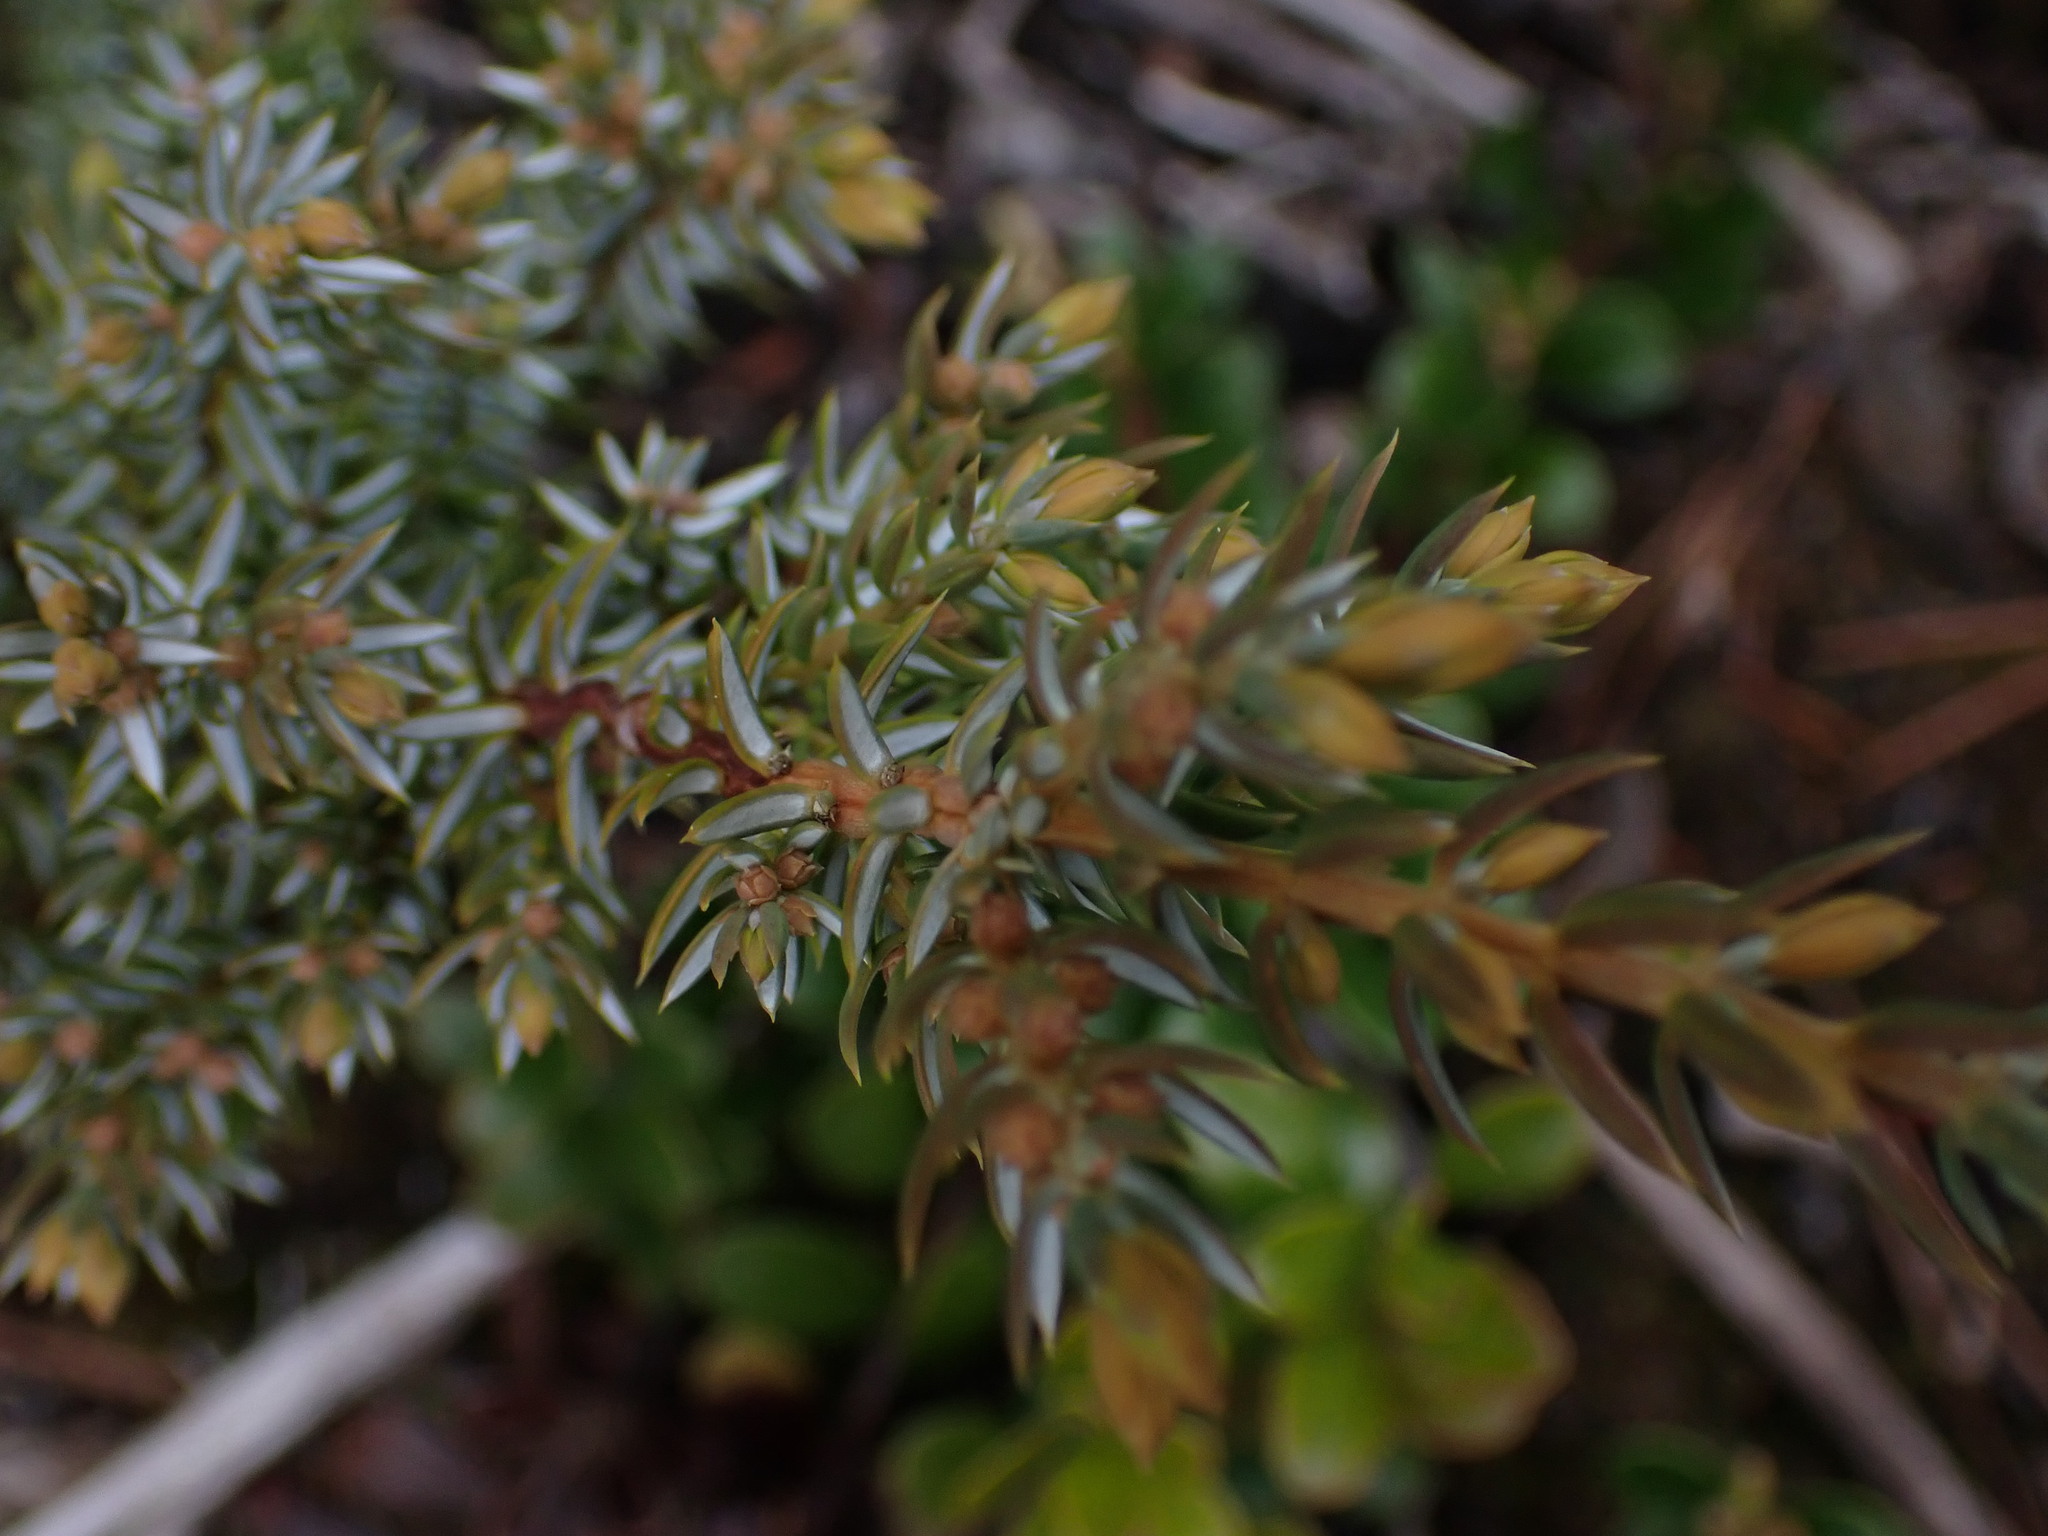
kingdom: Plantae
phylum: Tracheophyta
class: Pinopsida
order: Pinales
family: Cupressaceae
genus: Juniperus
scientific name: Juniperus communis
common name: Common juniper
